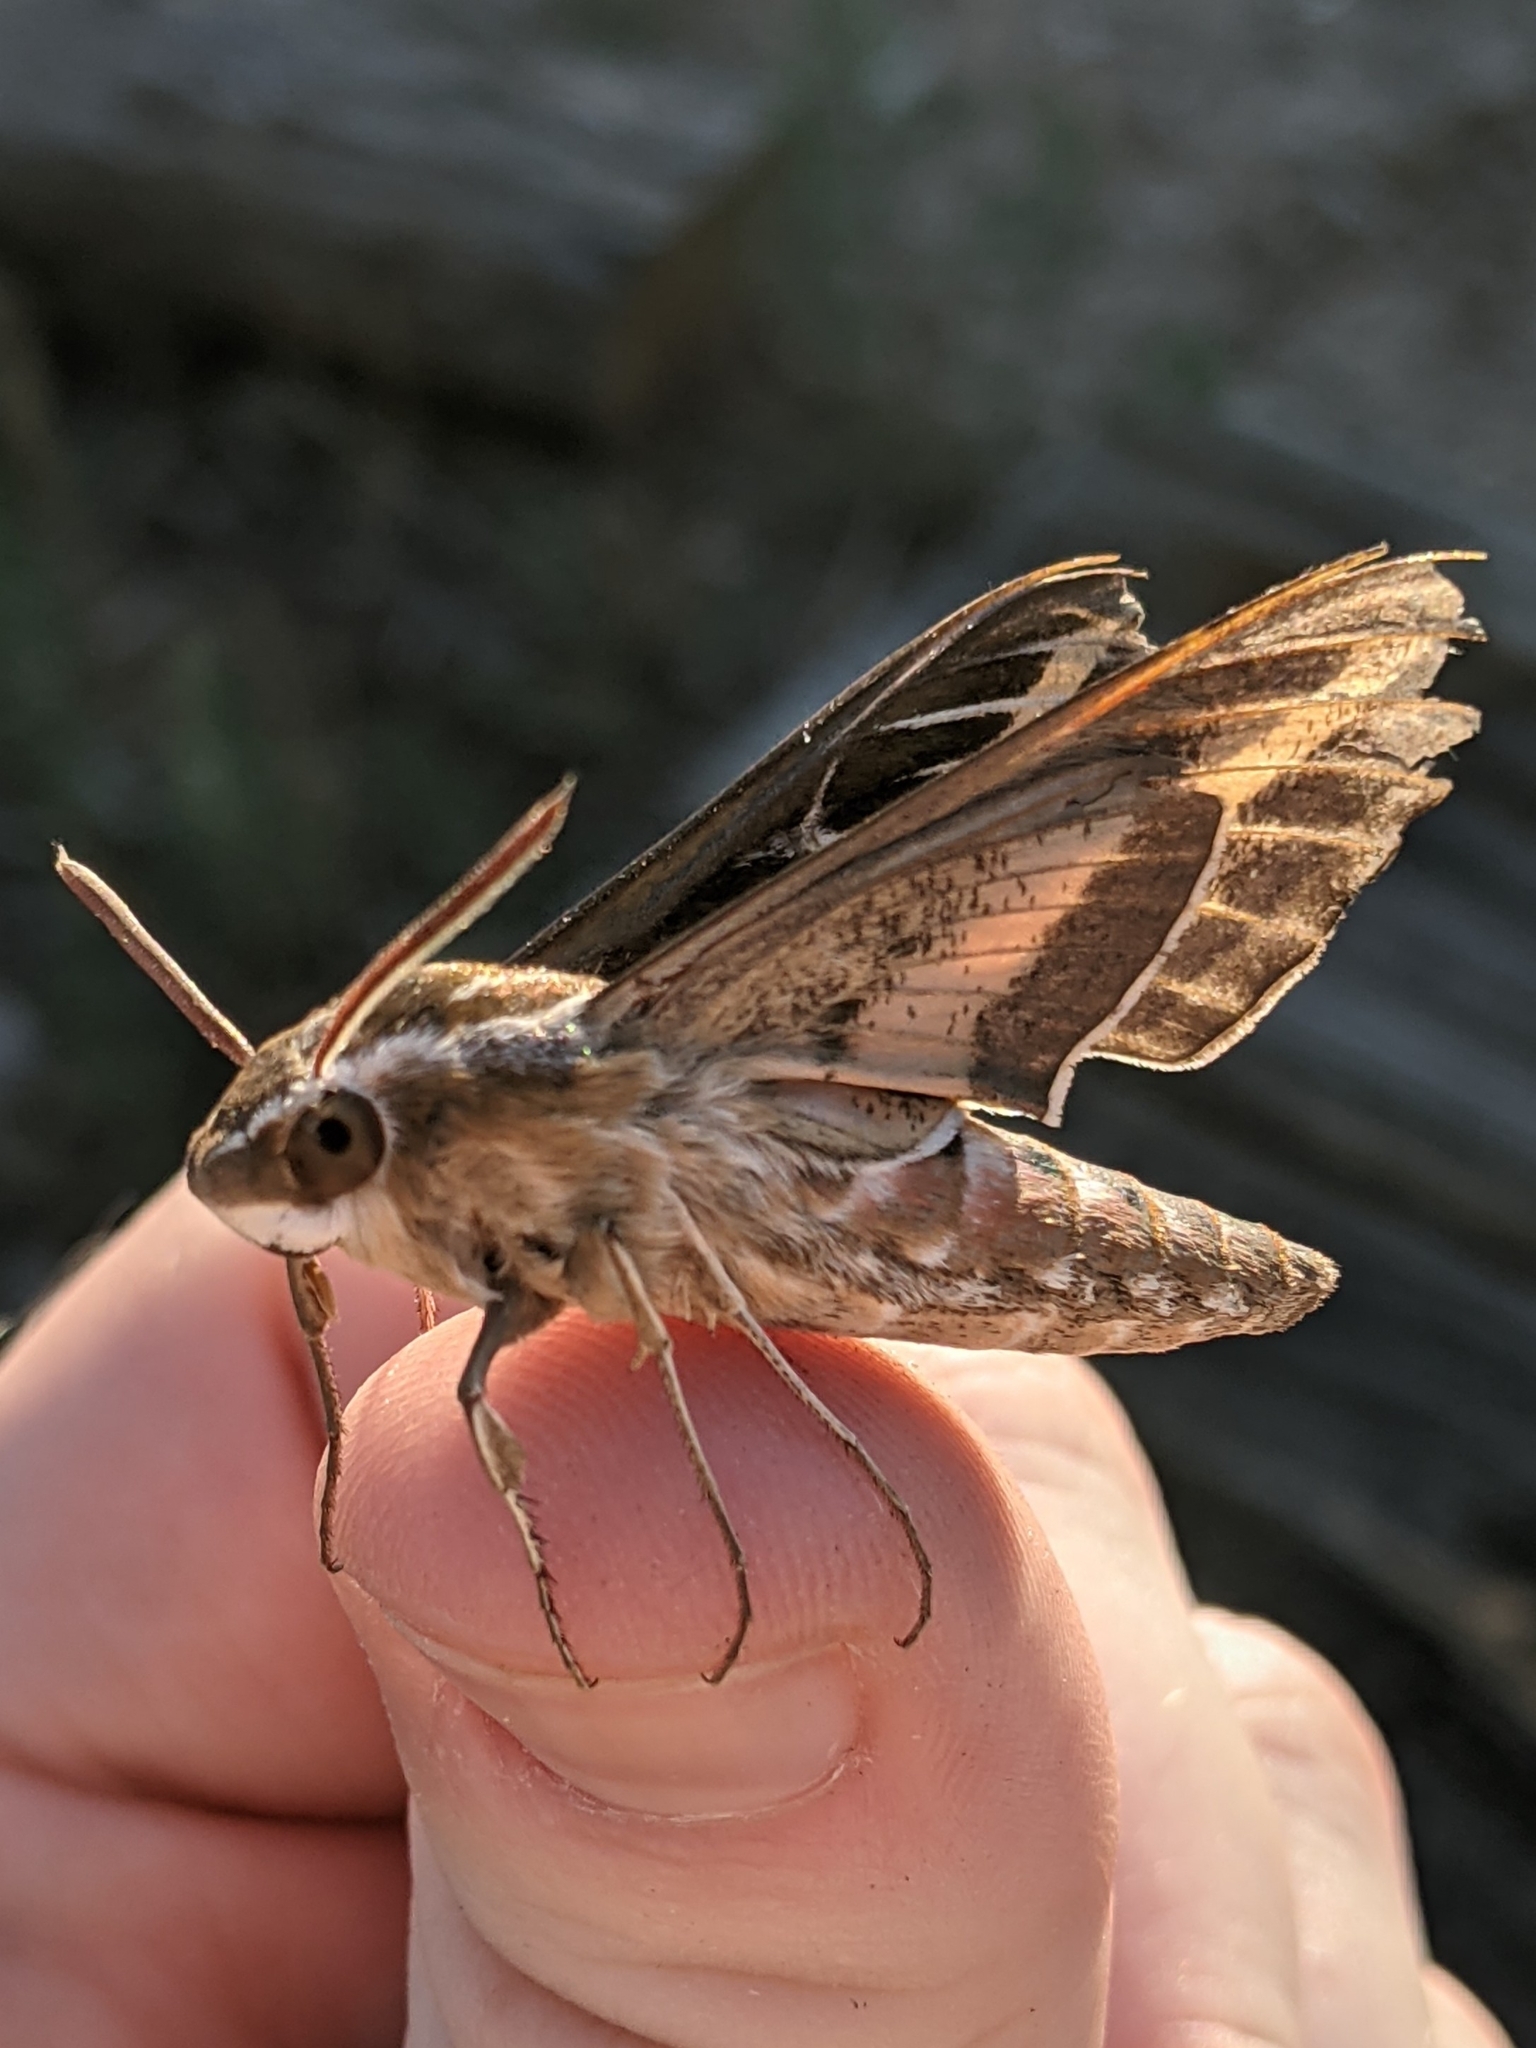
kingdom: Animalia
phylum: Arthropoda
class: Insecta
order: Lepidoptera
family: Sphingidae
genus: Hyles
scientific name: Hyles lineata
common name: White-lined sphinx
